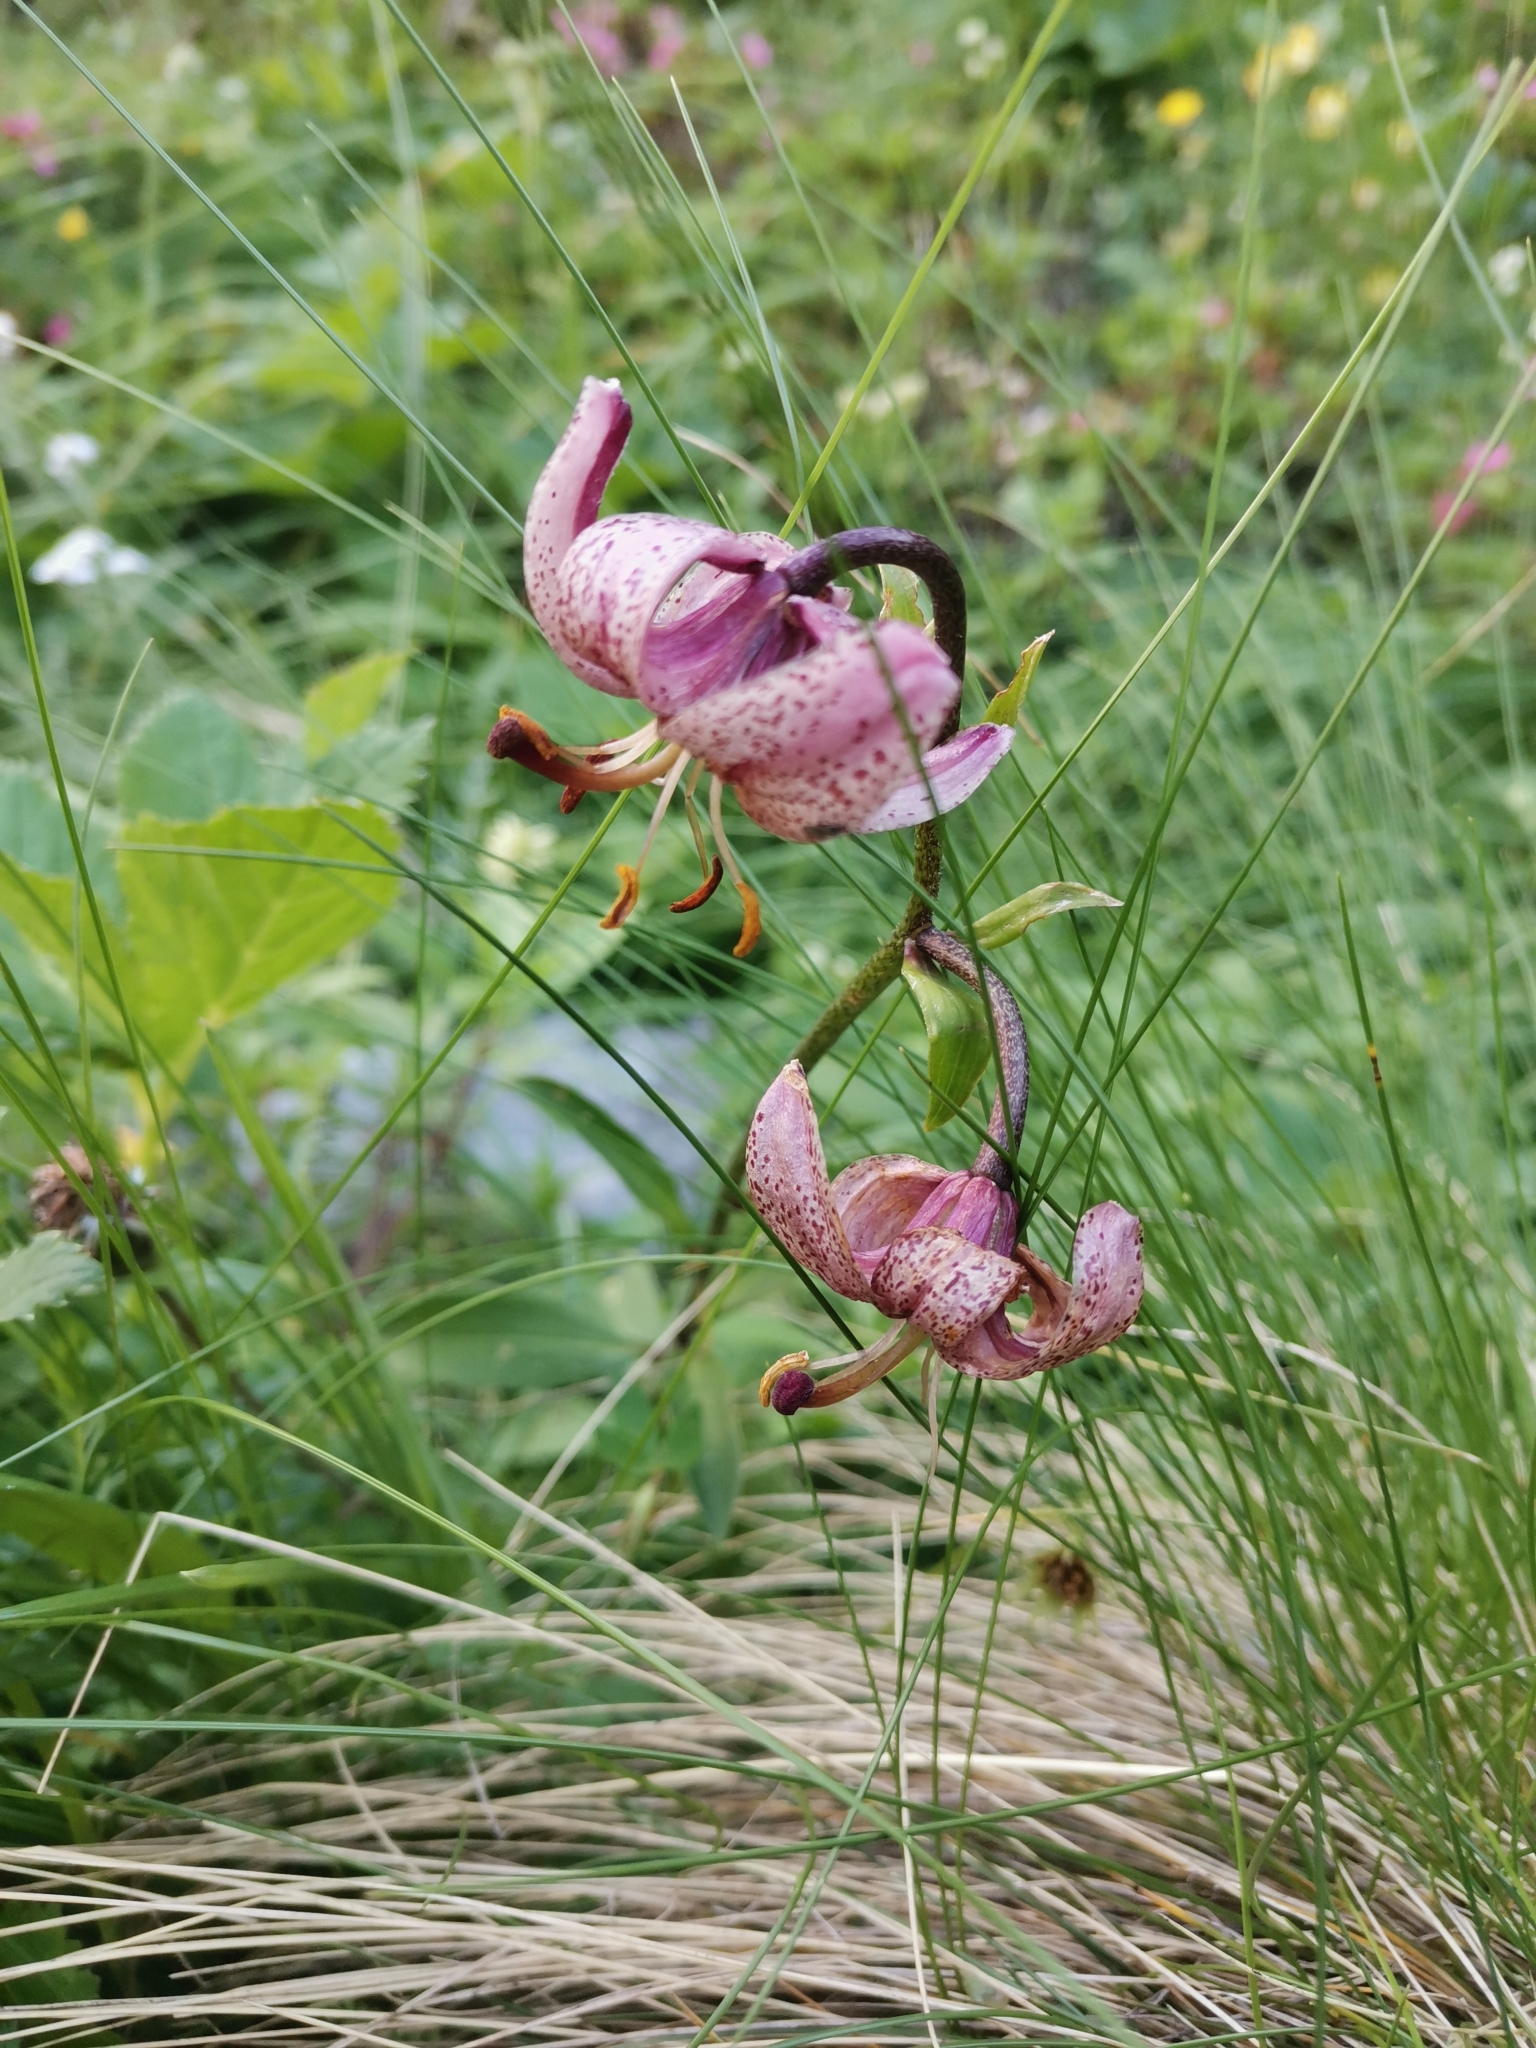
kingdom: Plantae
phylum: Tracheophyta
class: Liliopsida
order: Liliales
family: Liliaceae
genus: Lilium
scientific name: Lilium martagon
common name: Martagon lily
